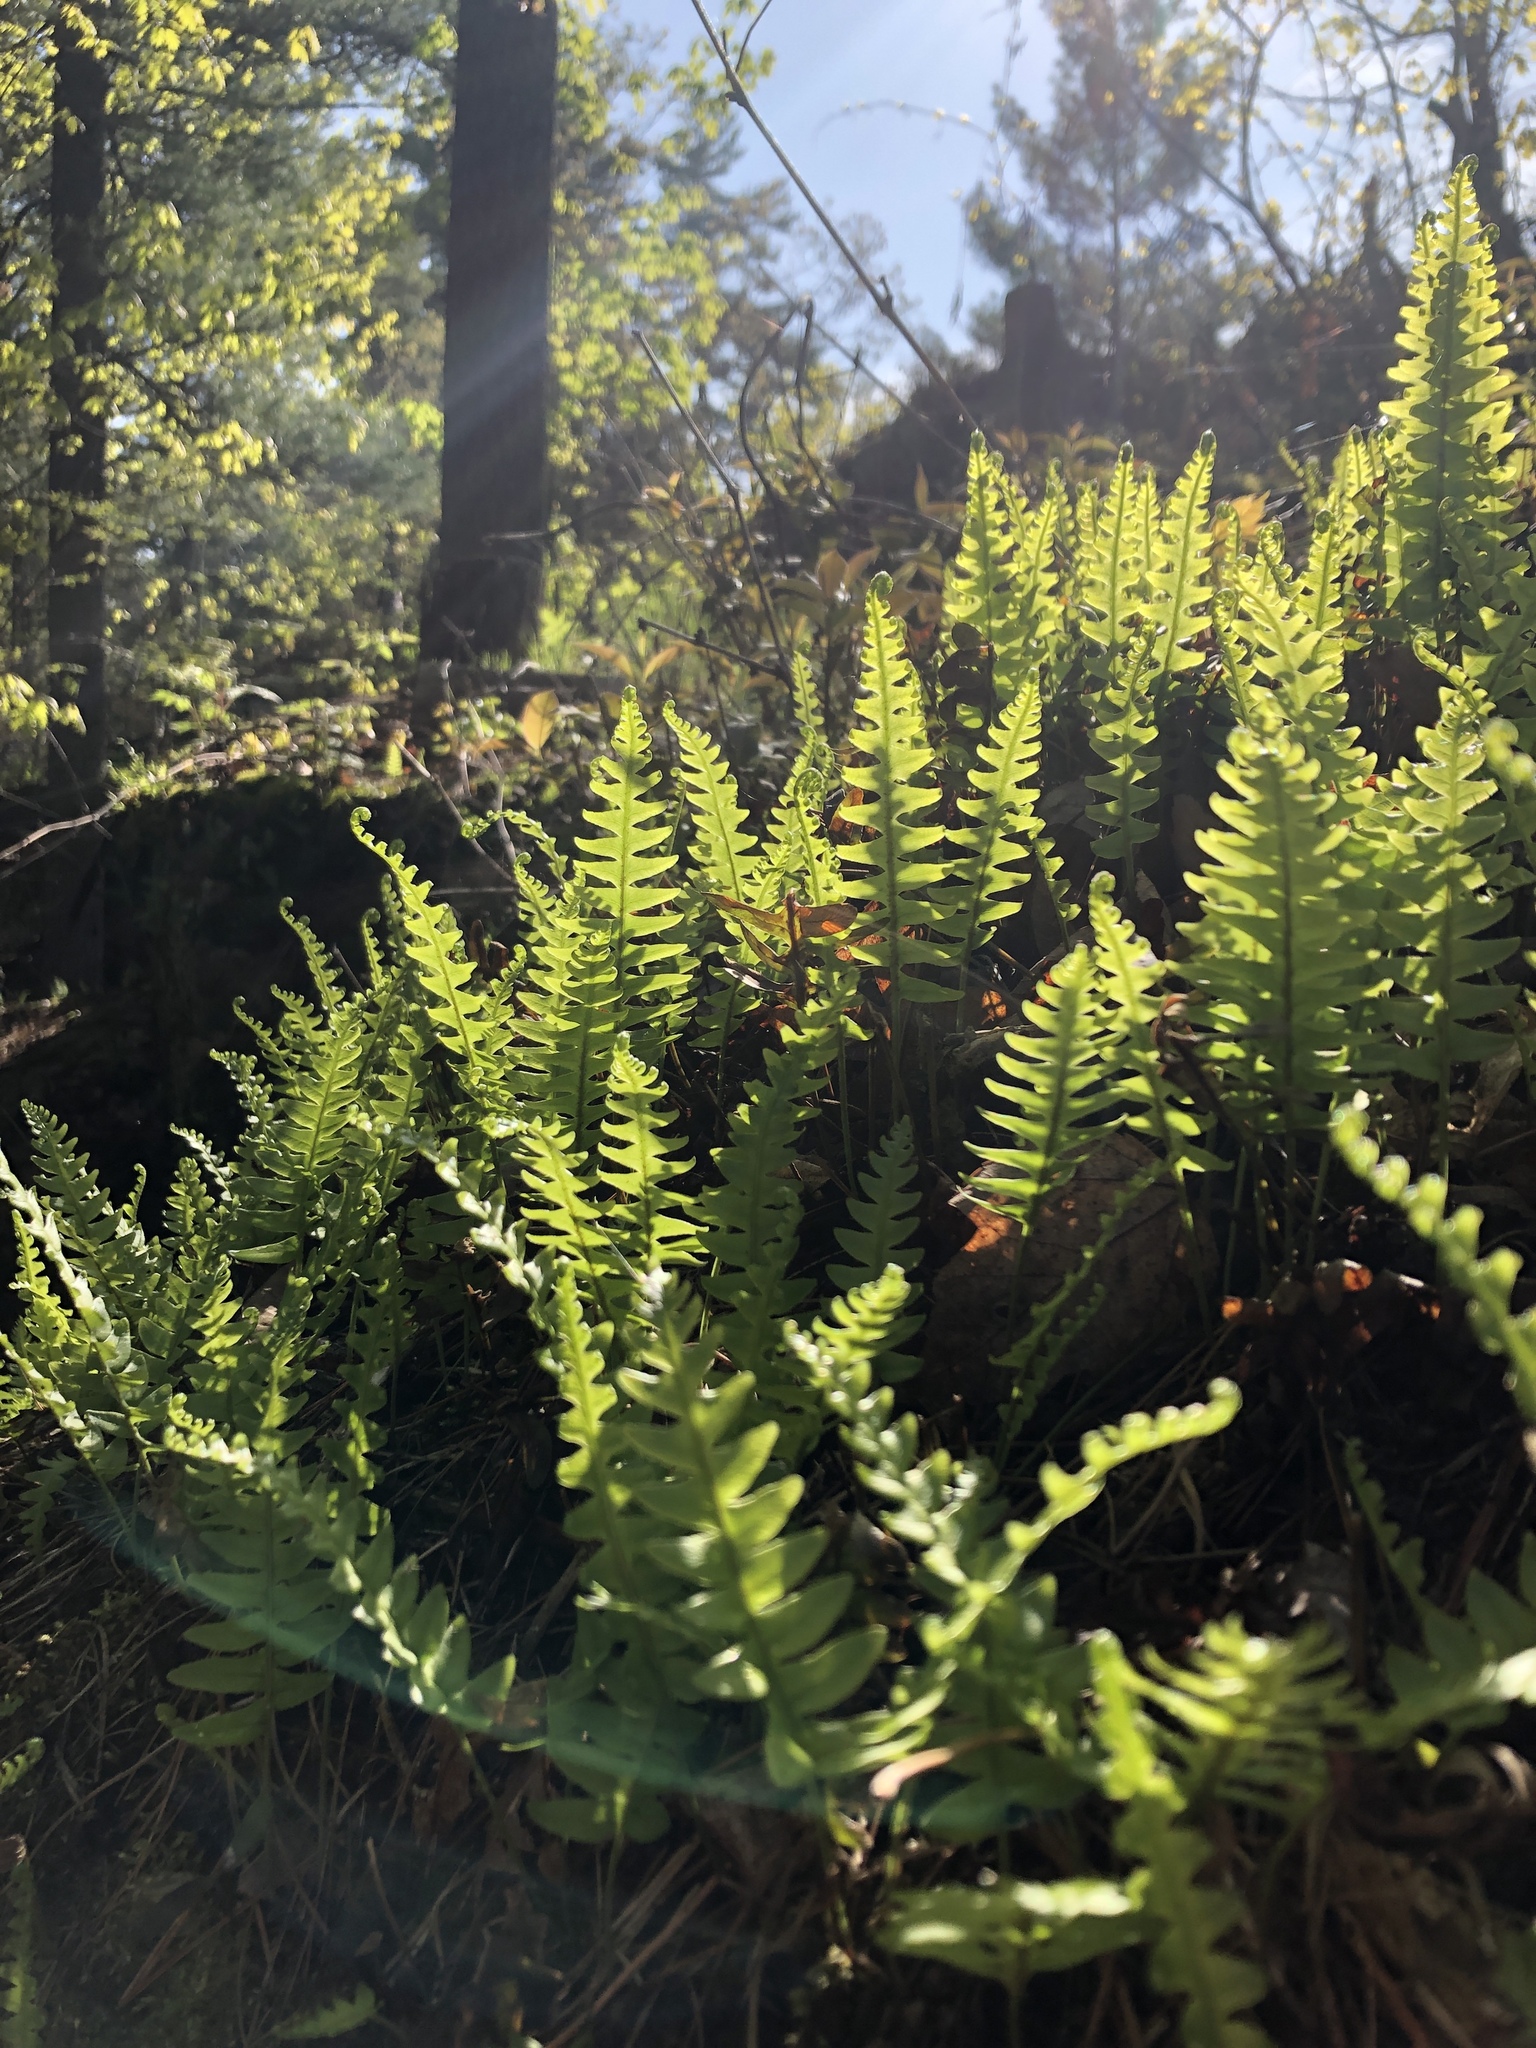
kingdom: Plantae
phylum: Tracheophyta
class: Polypodiopsida
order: Polypodiales
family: Polypodiaceae
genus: Polypodium
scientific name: Polypodium virginianum
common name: American wall fern
